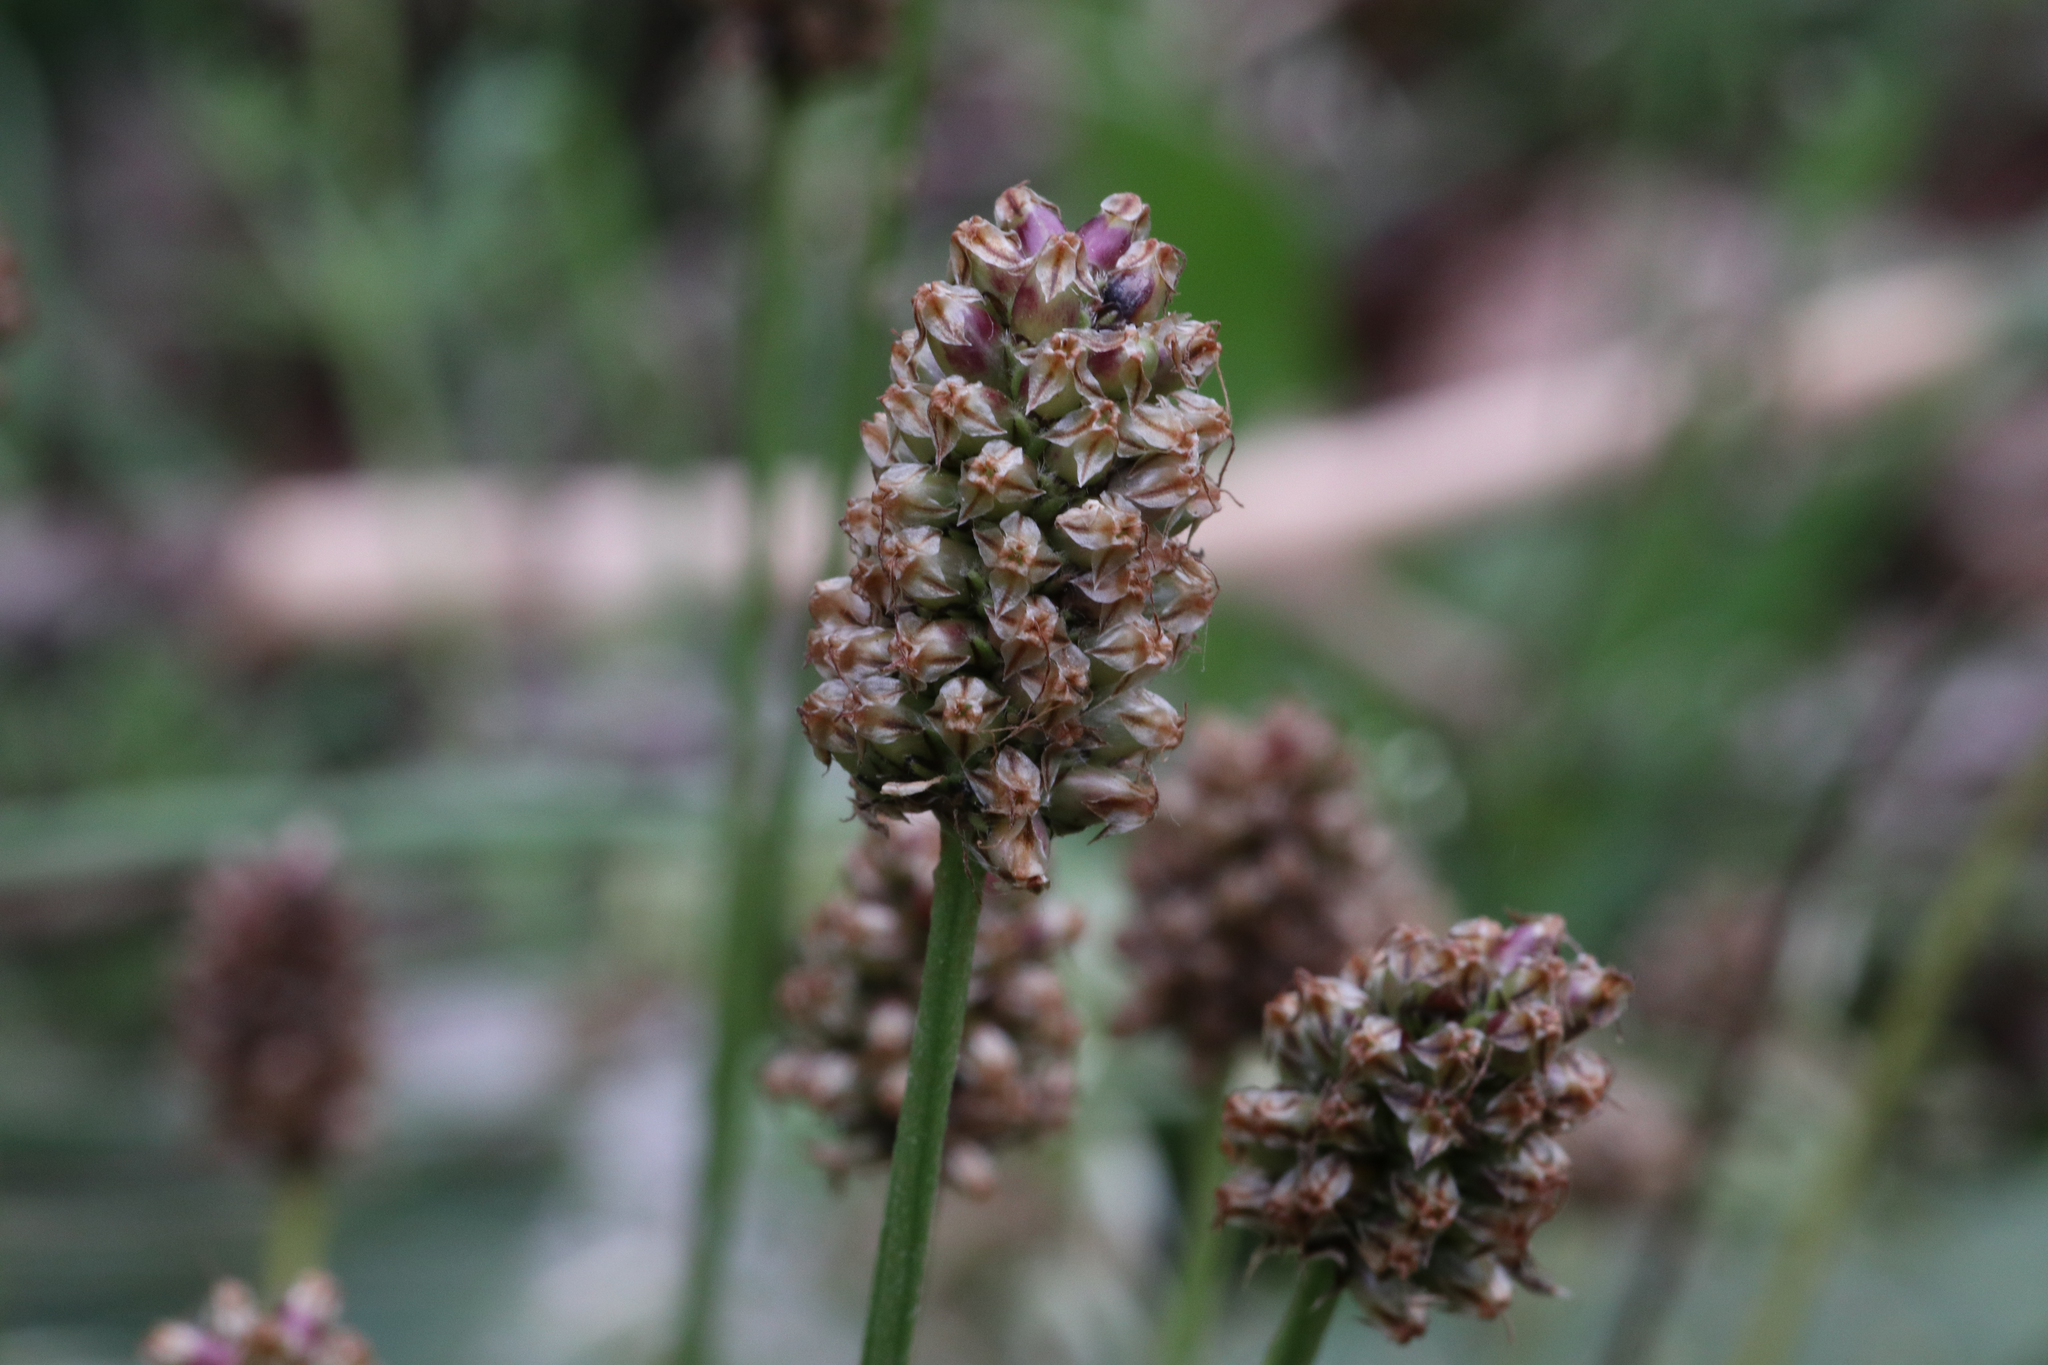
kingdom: Plantae
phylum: Tracheophyta
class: Magnoliopsida
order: Lamiales
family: Plantaginaceae
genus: Plantago
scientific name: Plantago lanceolata
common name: Ribwort plantain
